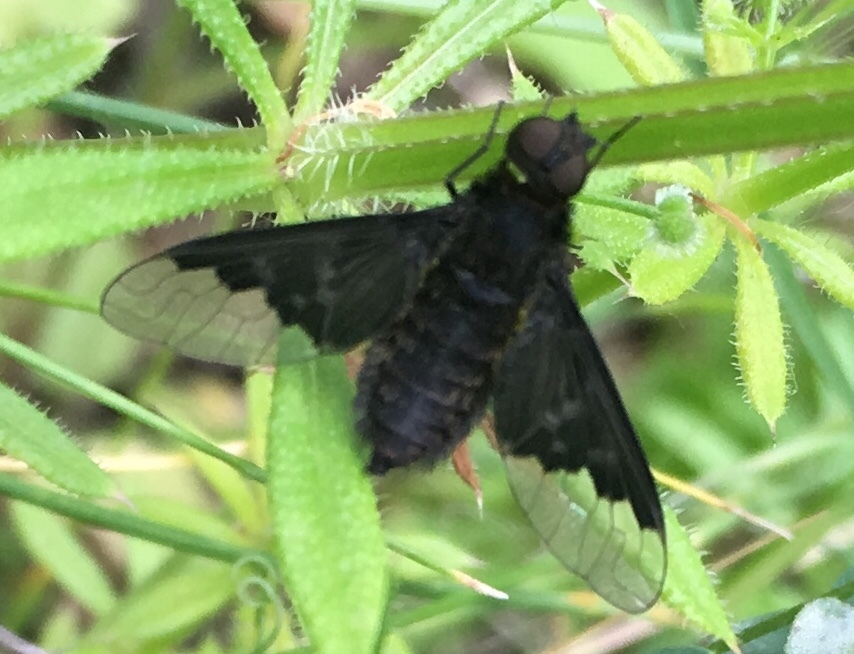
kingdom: Animalia
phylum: Arthropoda
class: Insecta
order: Diptera
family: Bombyliidae
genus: Hemipenthes
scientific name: Hemipenthes morio
